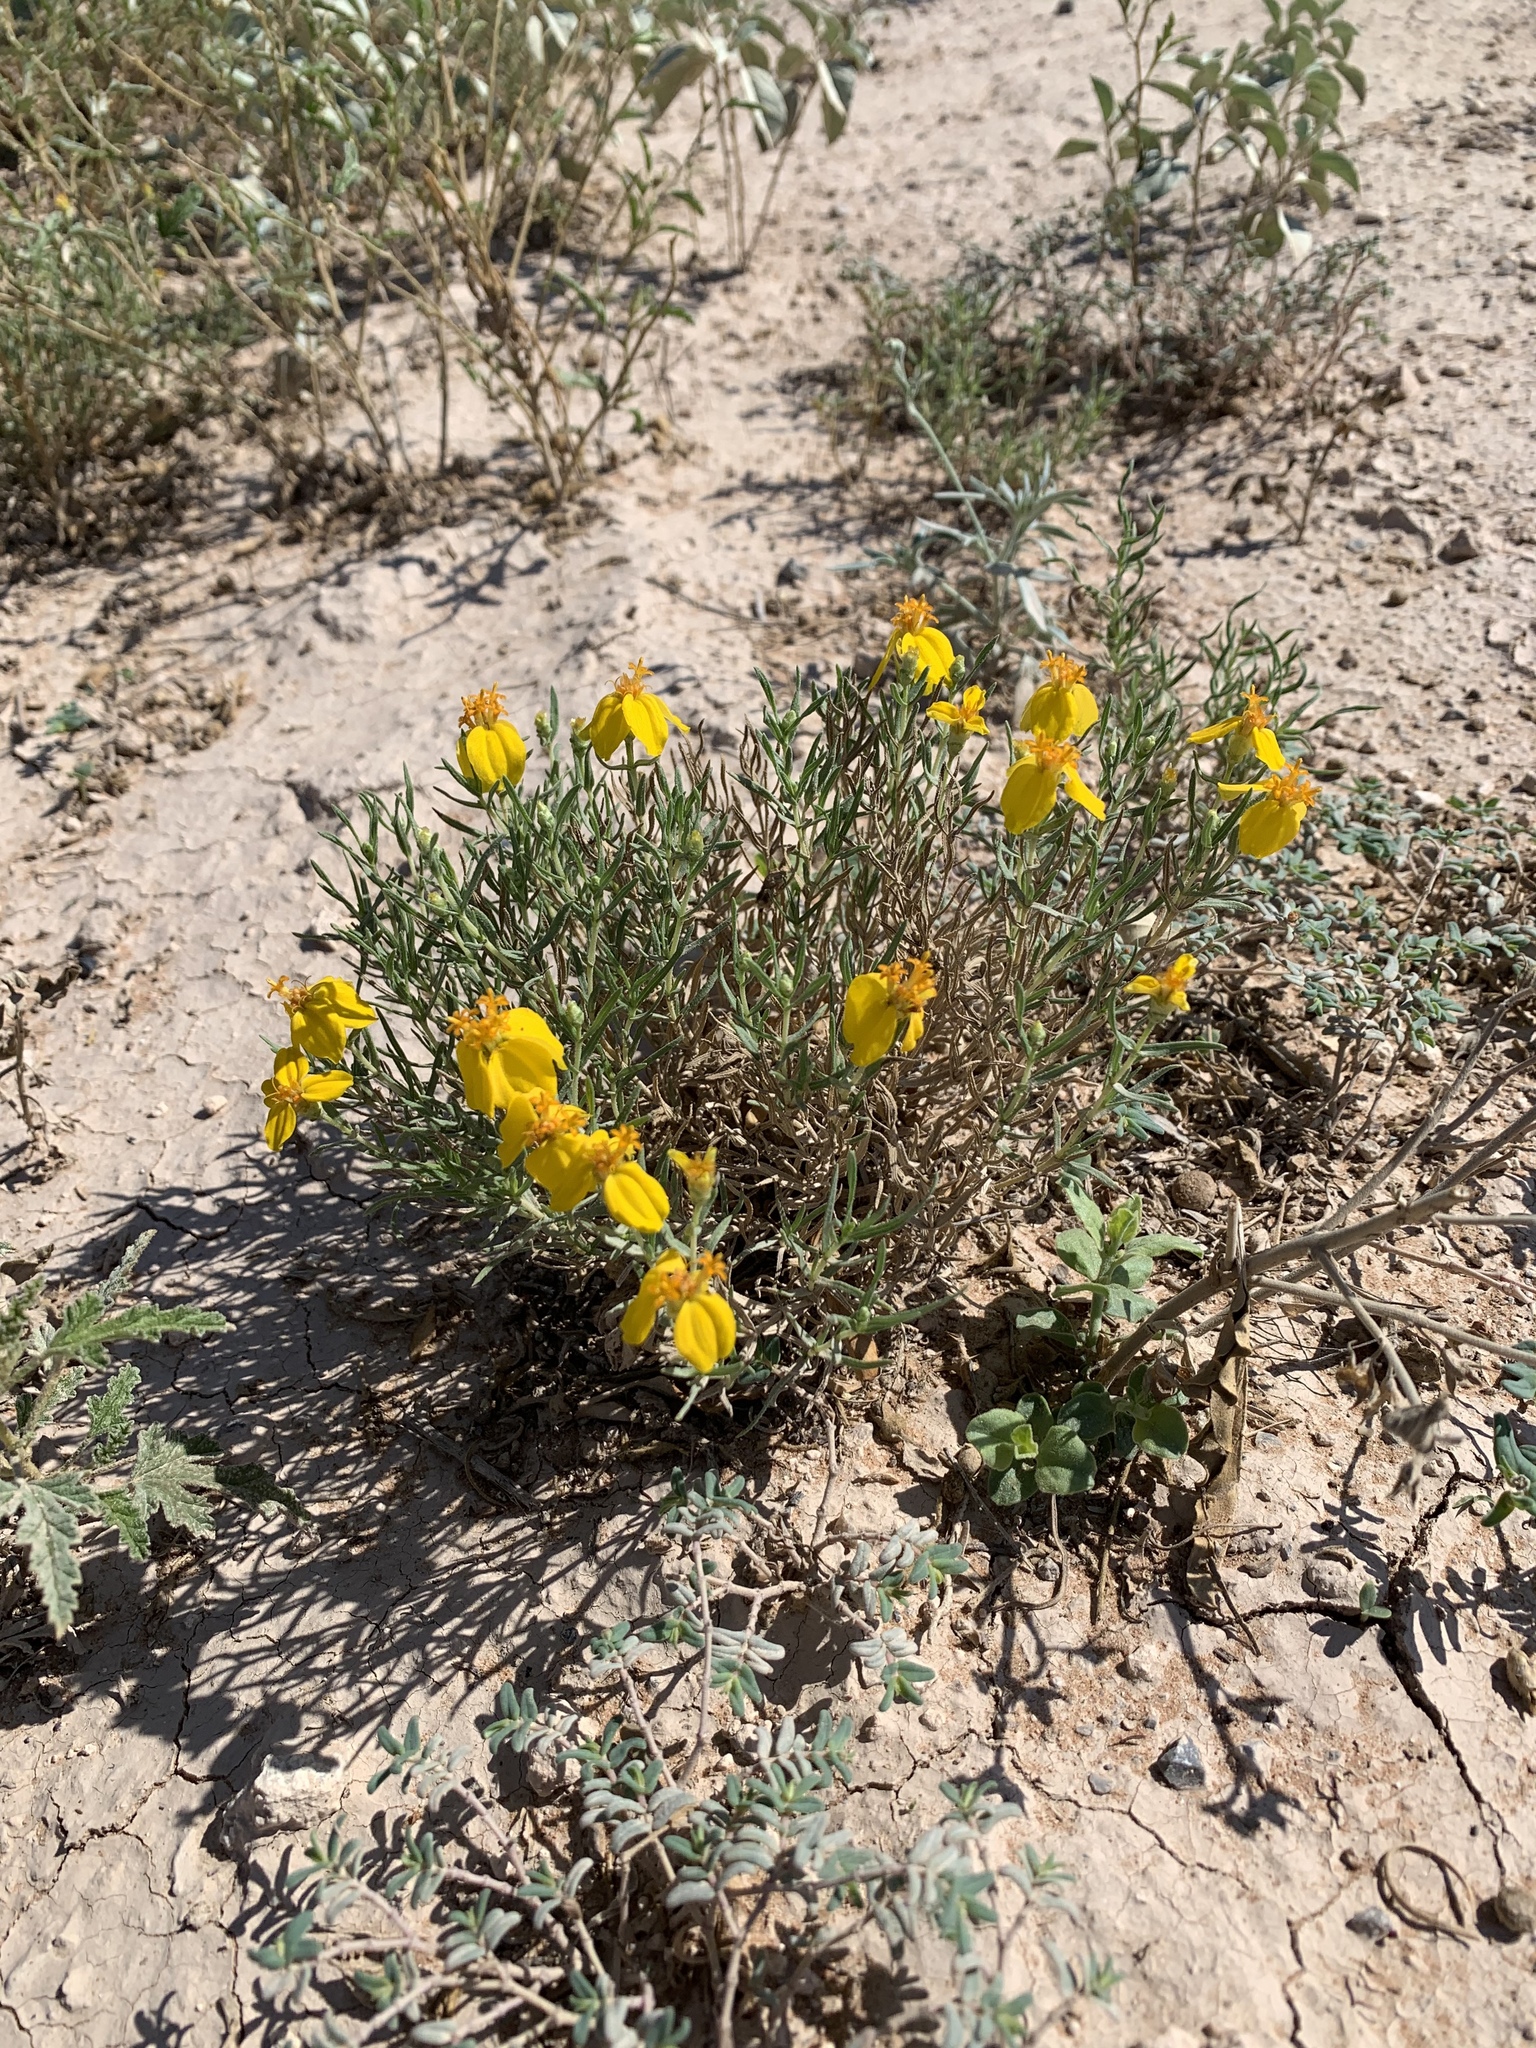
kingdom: Plantae
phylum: Tracheophyta
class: Magnoliopsida
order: Asterales
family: Asteraceae
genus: Zinnia
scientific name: Zinnia grandiflora
